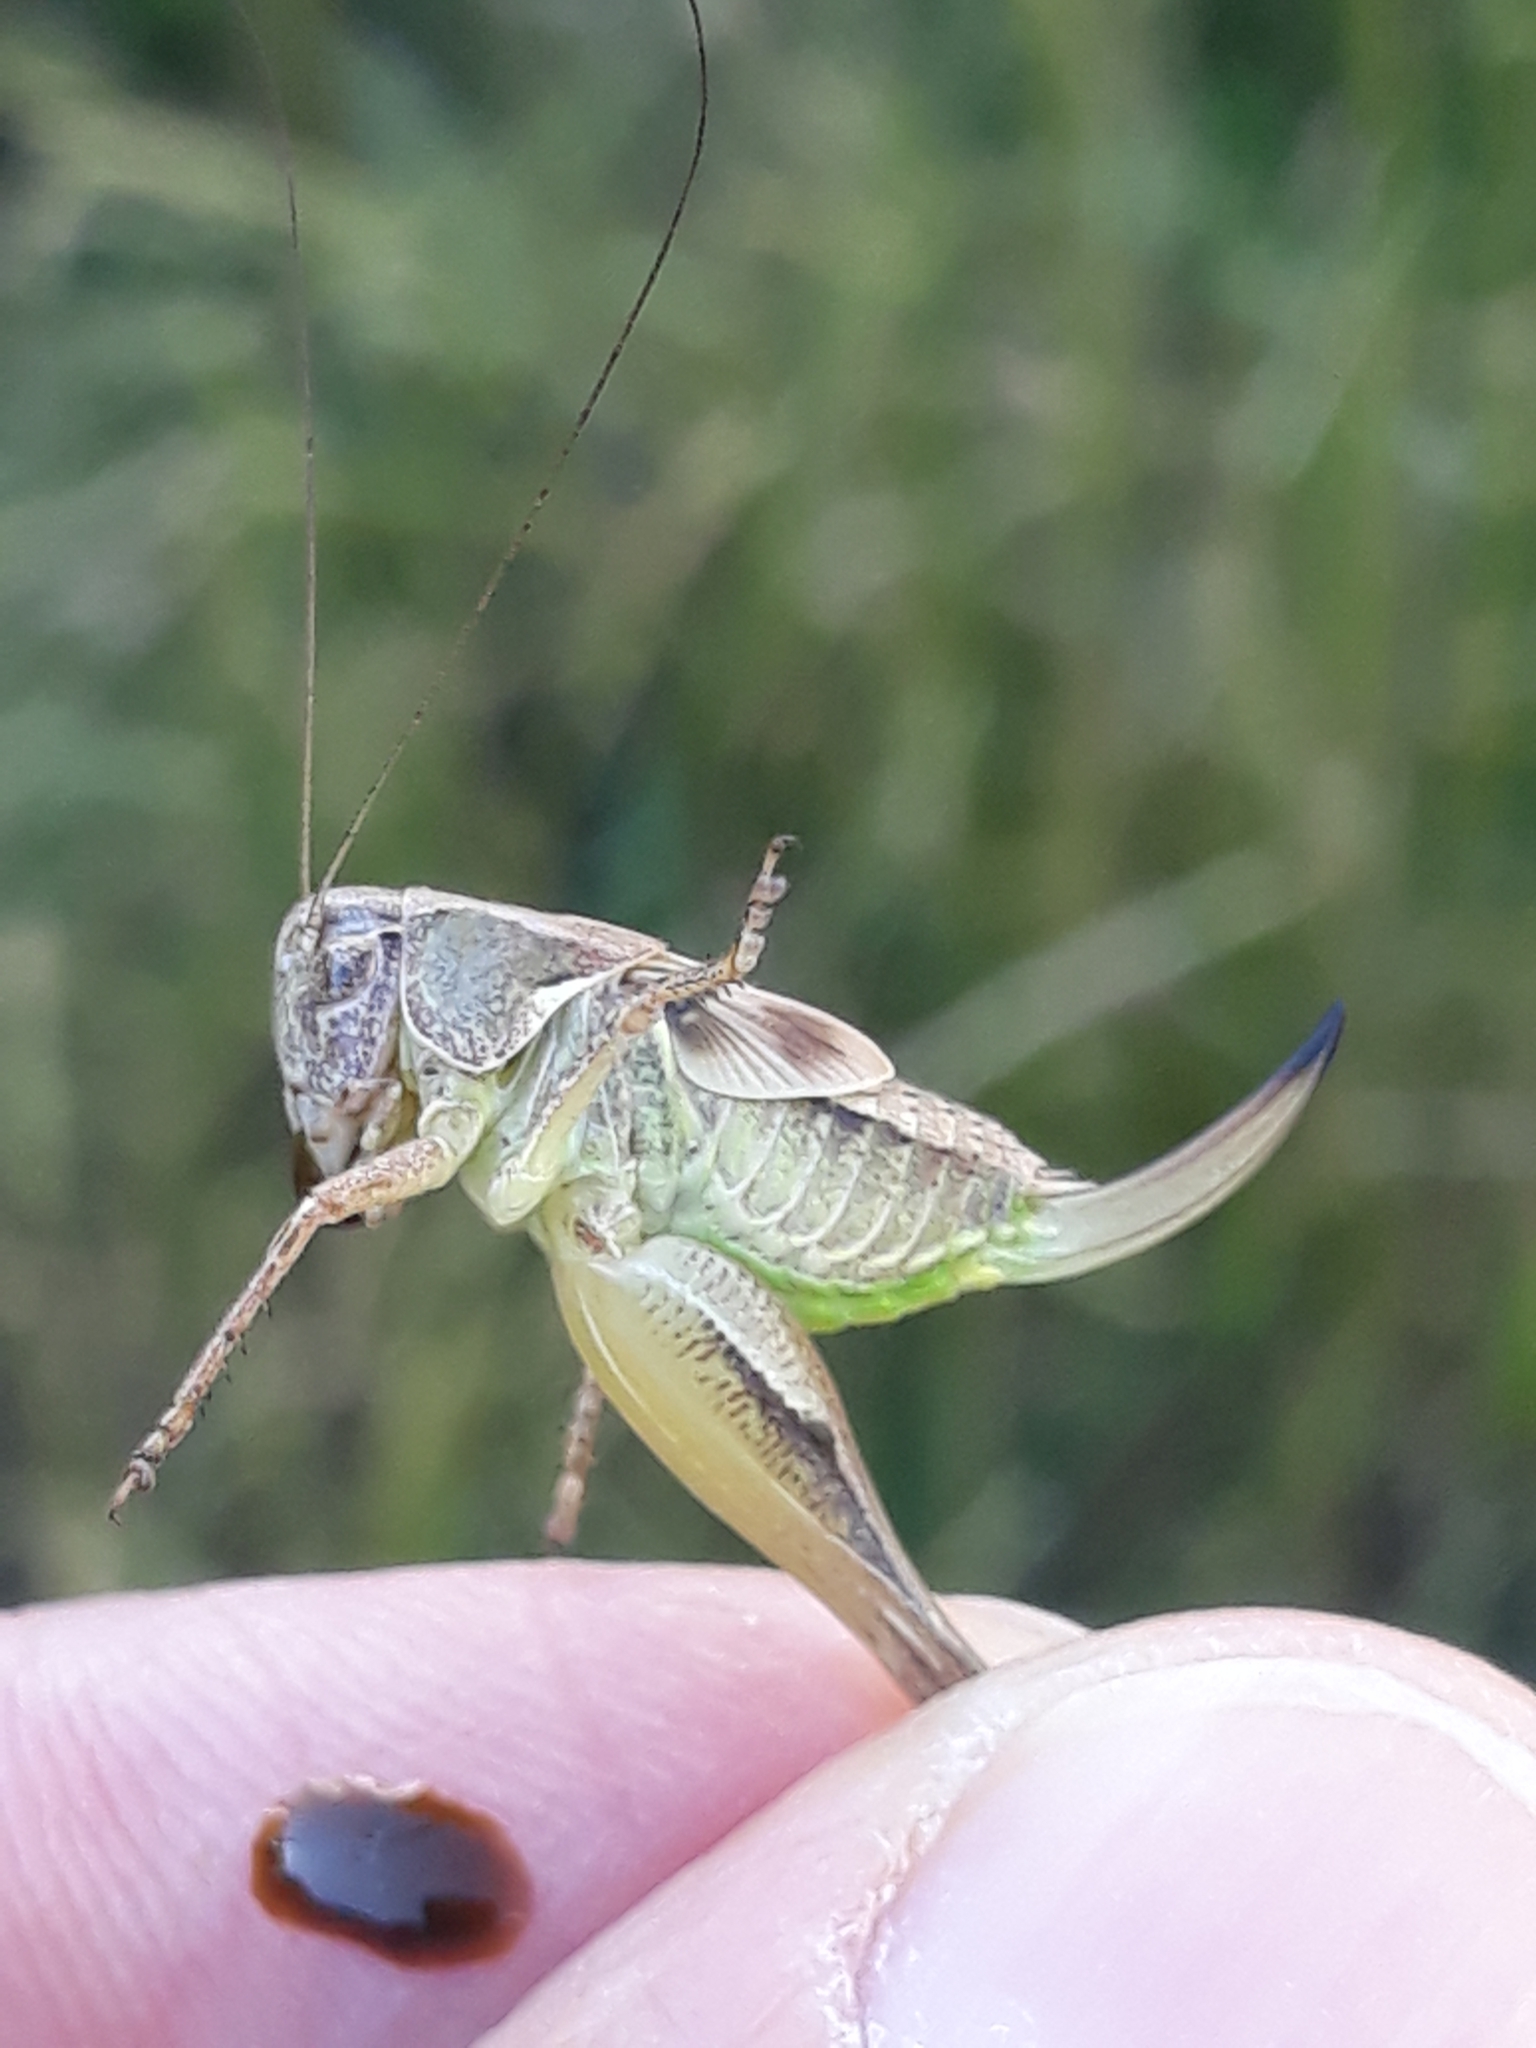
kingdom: Animalia
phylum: Arthropoda
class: Insecta
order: Orthoptera
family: Tettigoniidae
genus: Platycleis
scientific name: Platycleis albopunctata
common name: Grey bush-cricket
